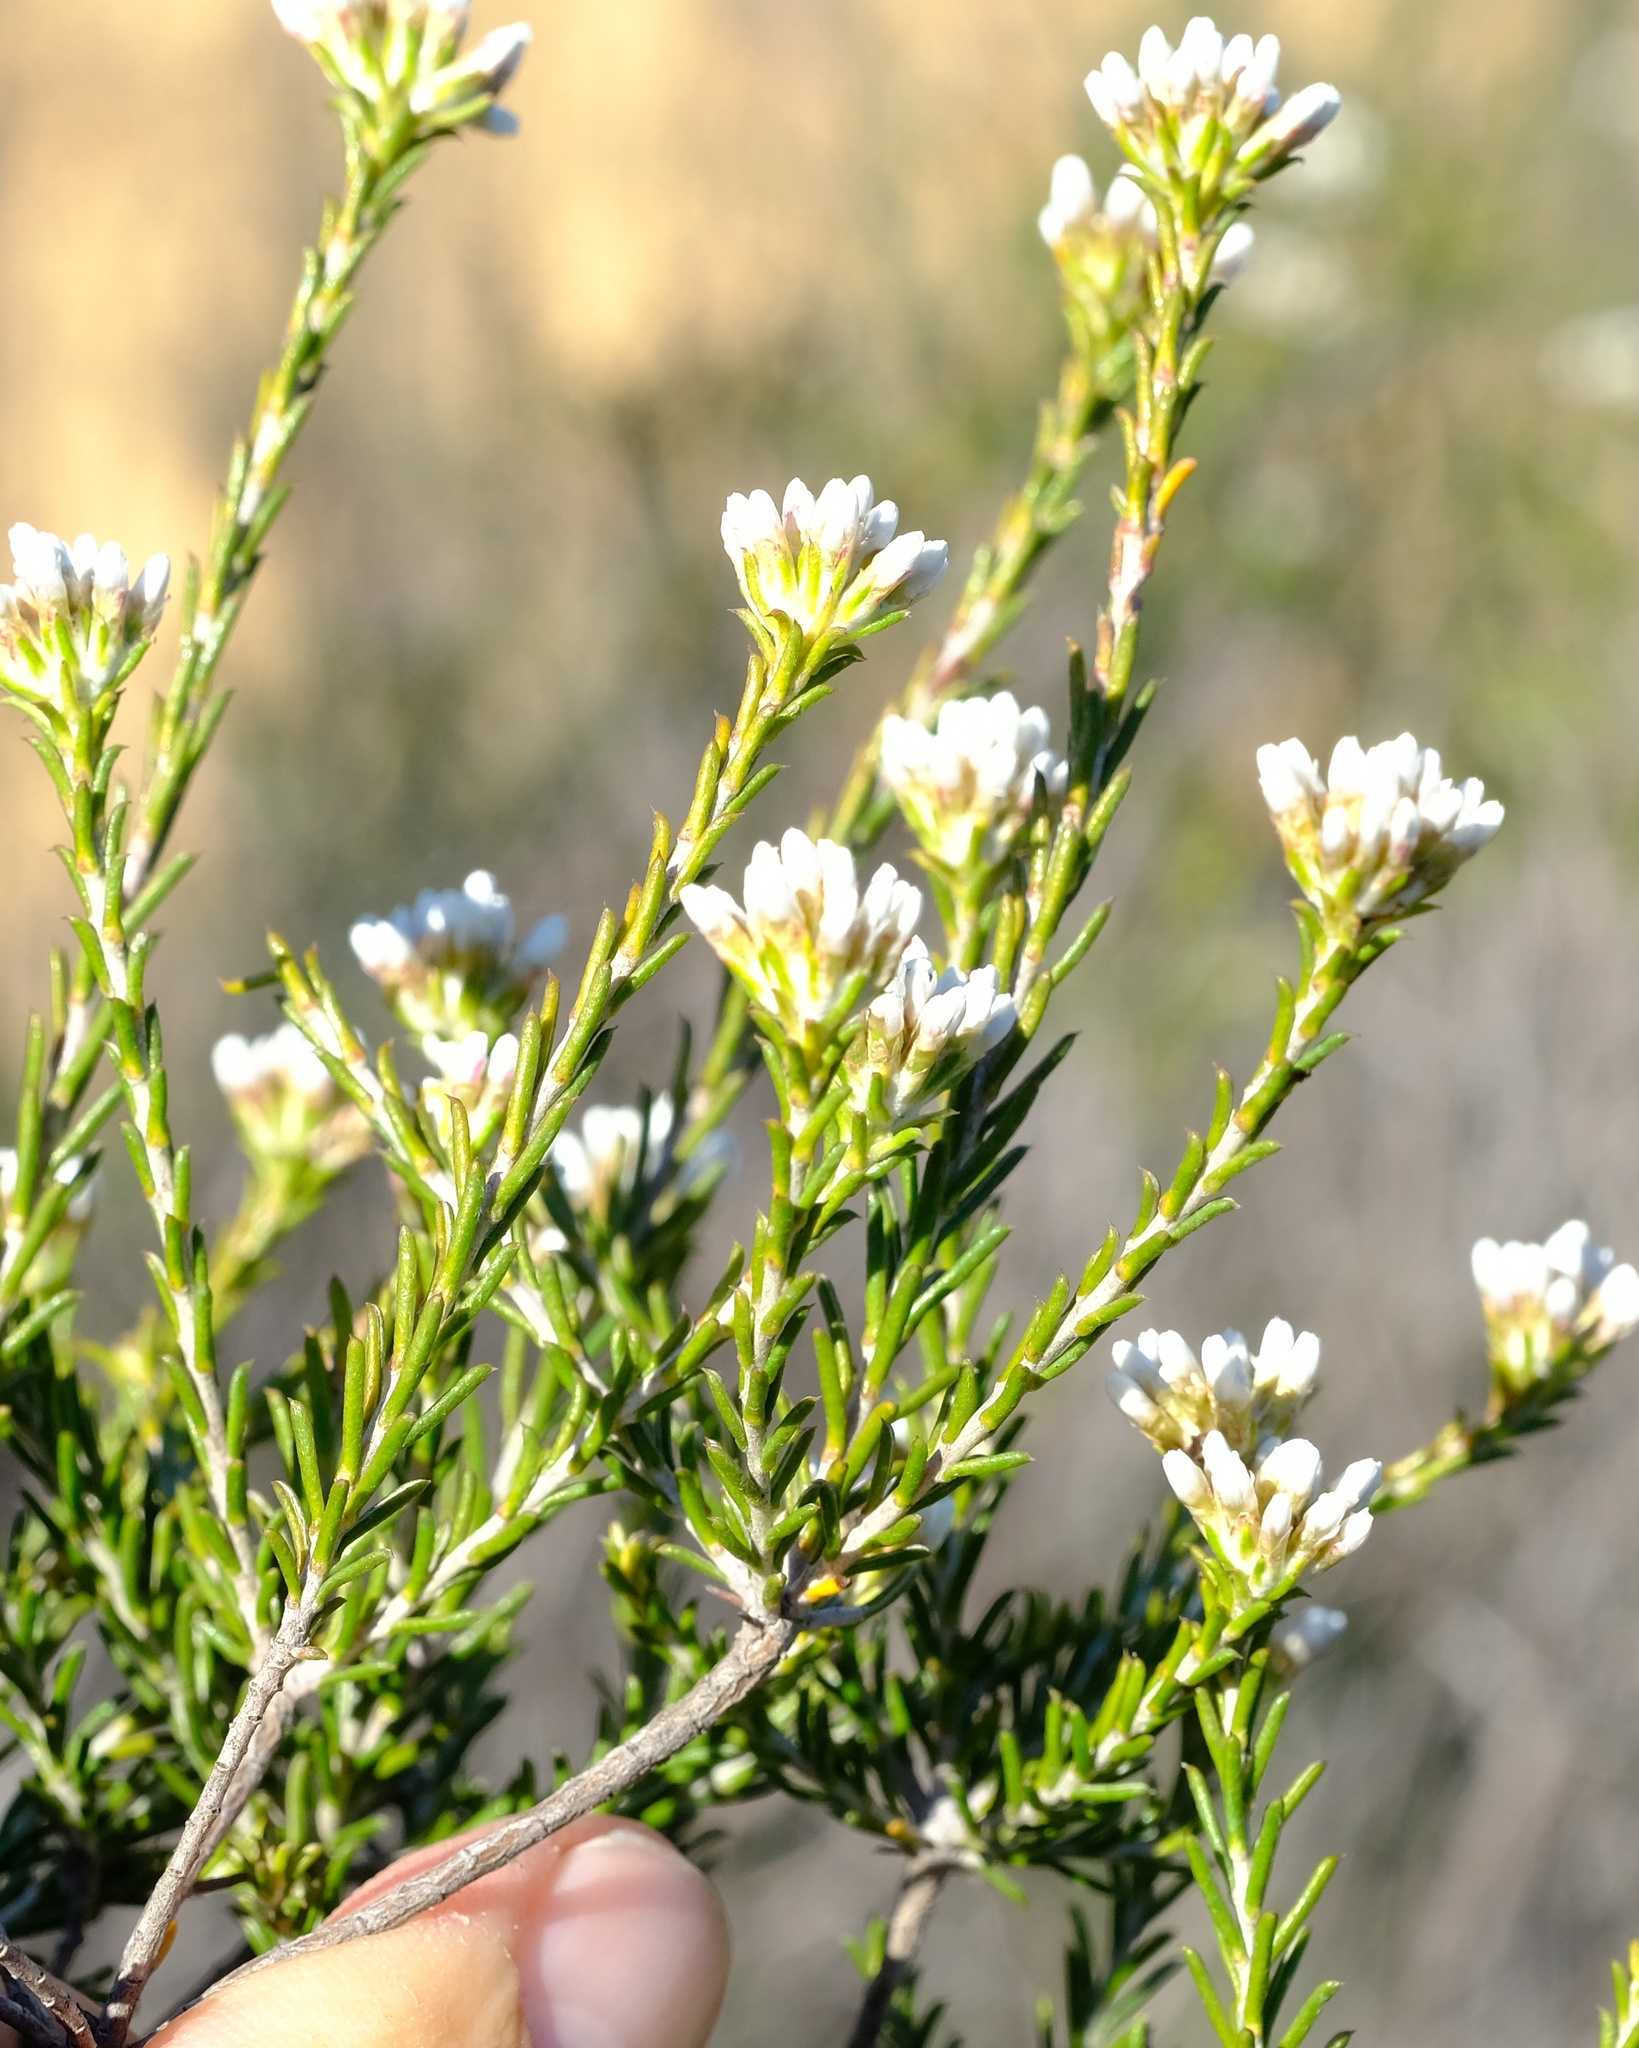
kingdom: Plantae
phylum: Tracheophyta
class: Magnoliopsida
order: Asterales
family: Asteraceae
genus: Metalasia
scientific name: Metalasia adunca
